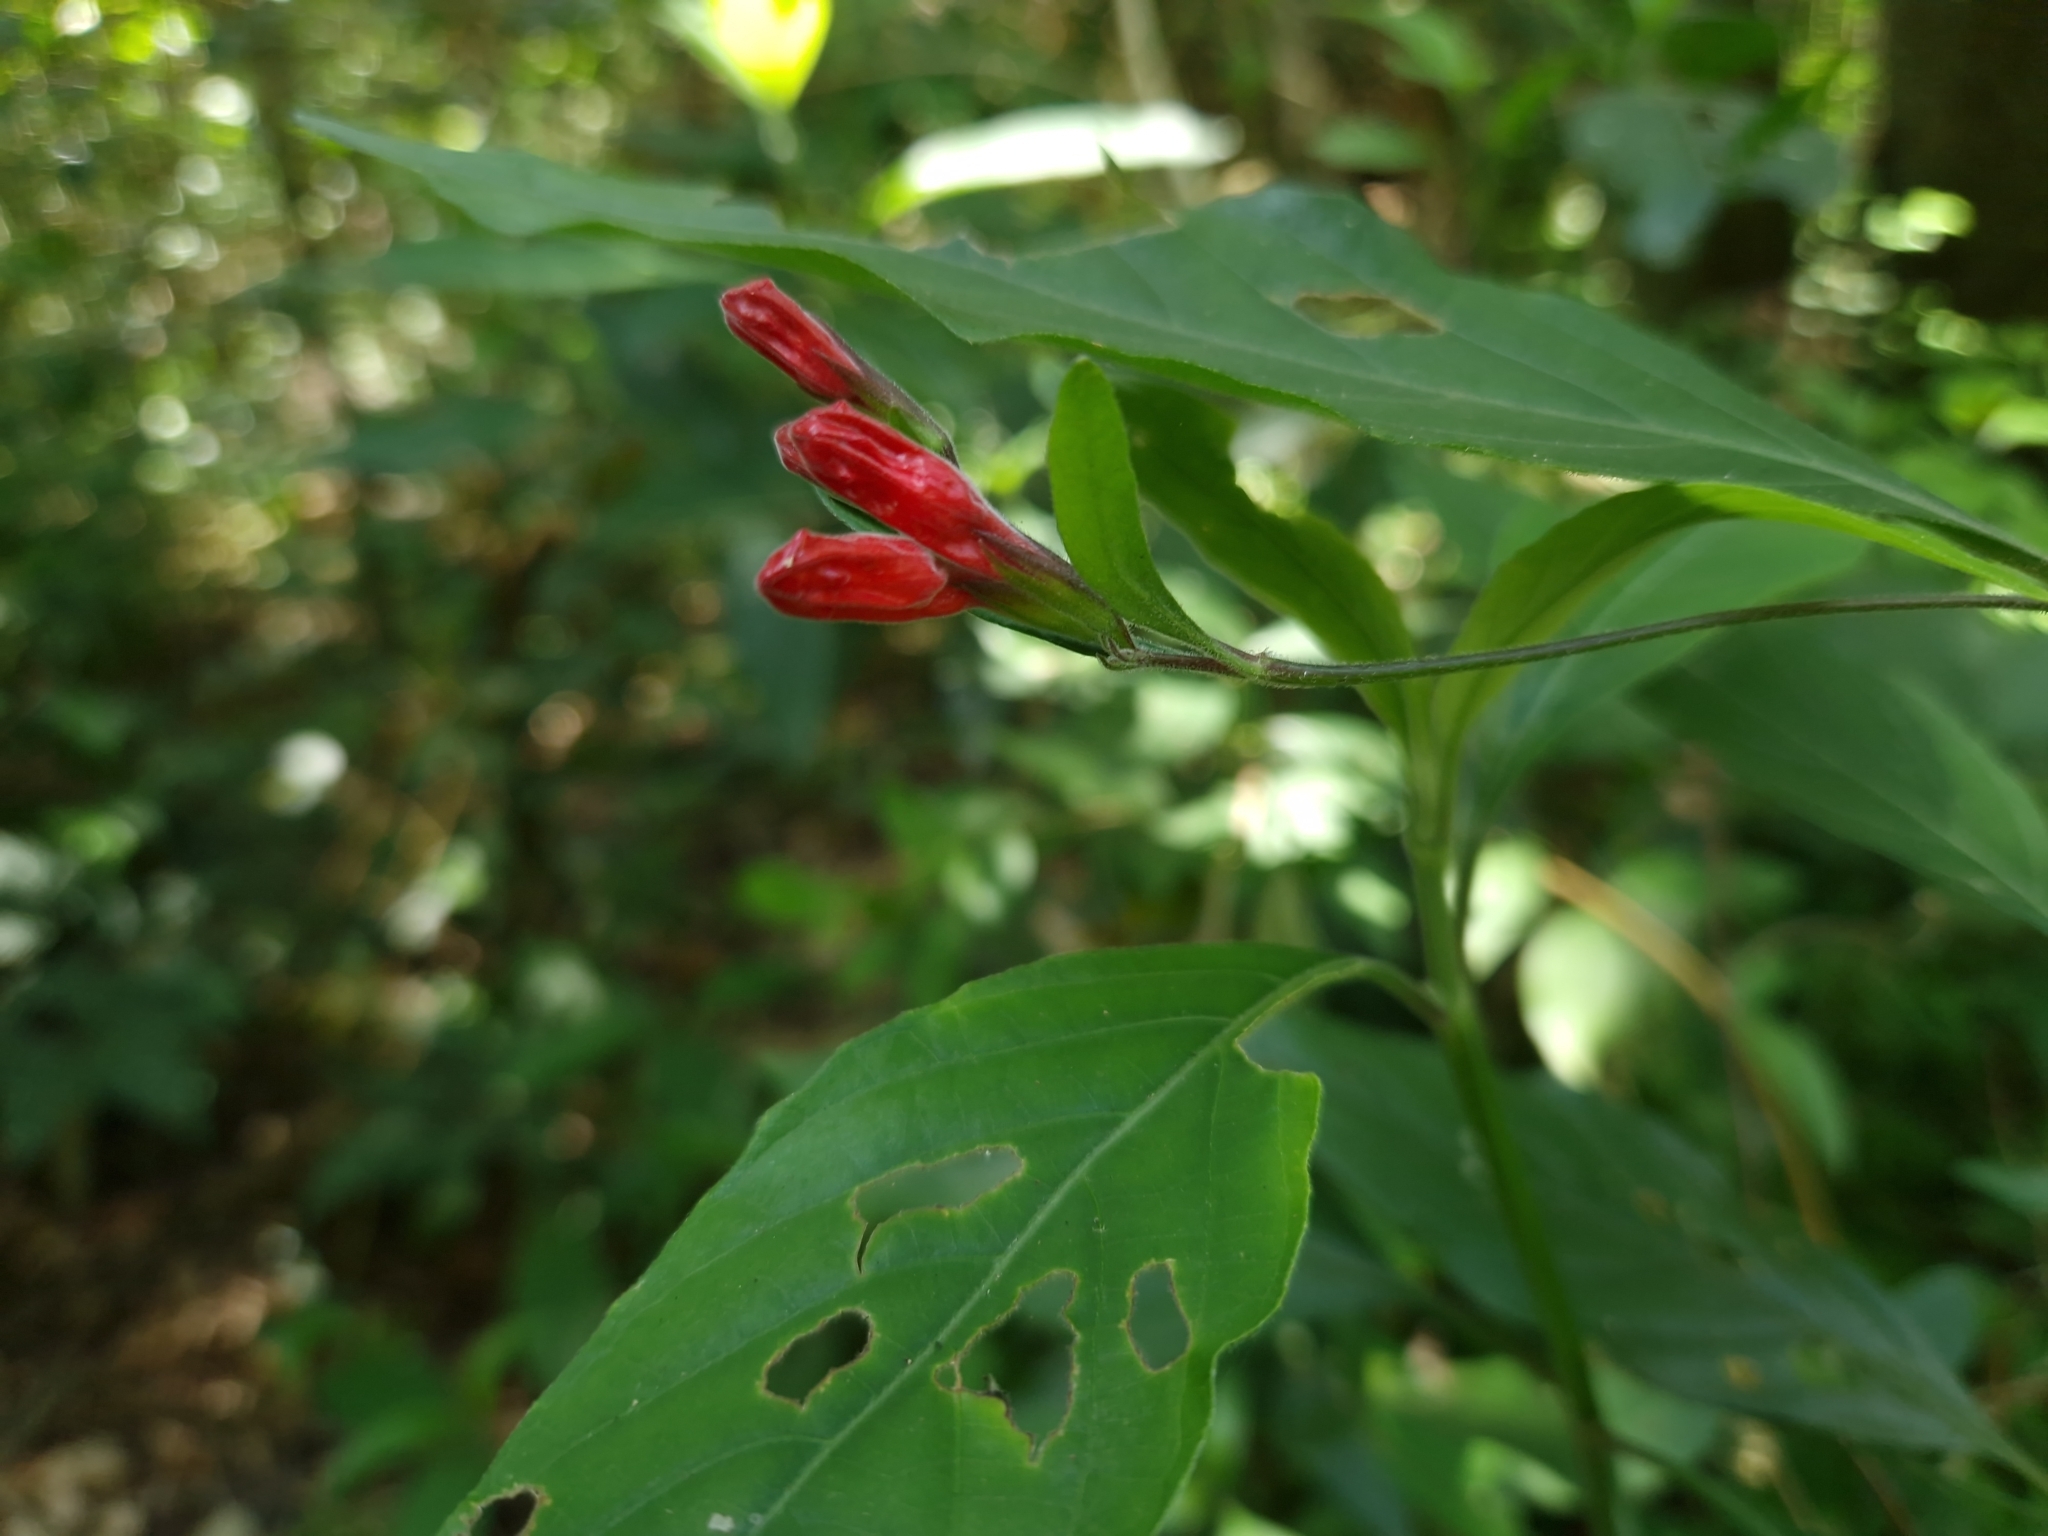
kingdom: Plantae
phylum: Tracheophyta
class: Magnoliopsida
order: Lamiales
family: Acanthaceae
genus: Ruellia
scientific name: Ruellia angustiflora
